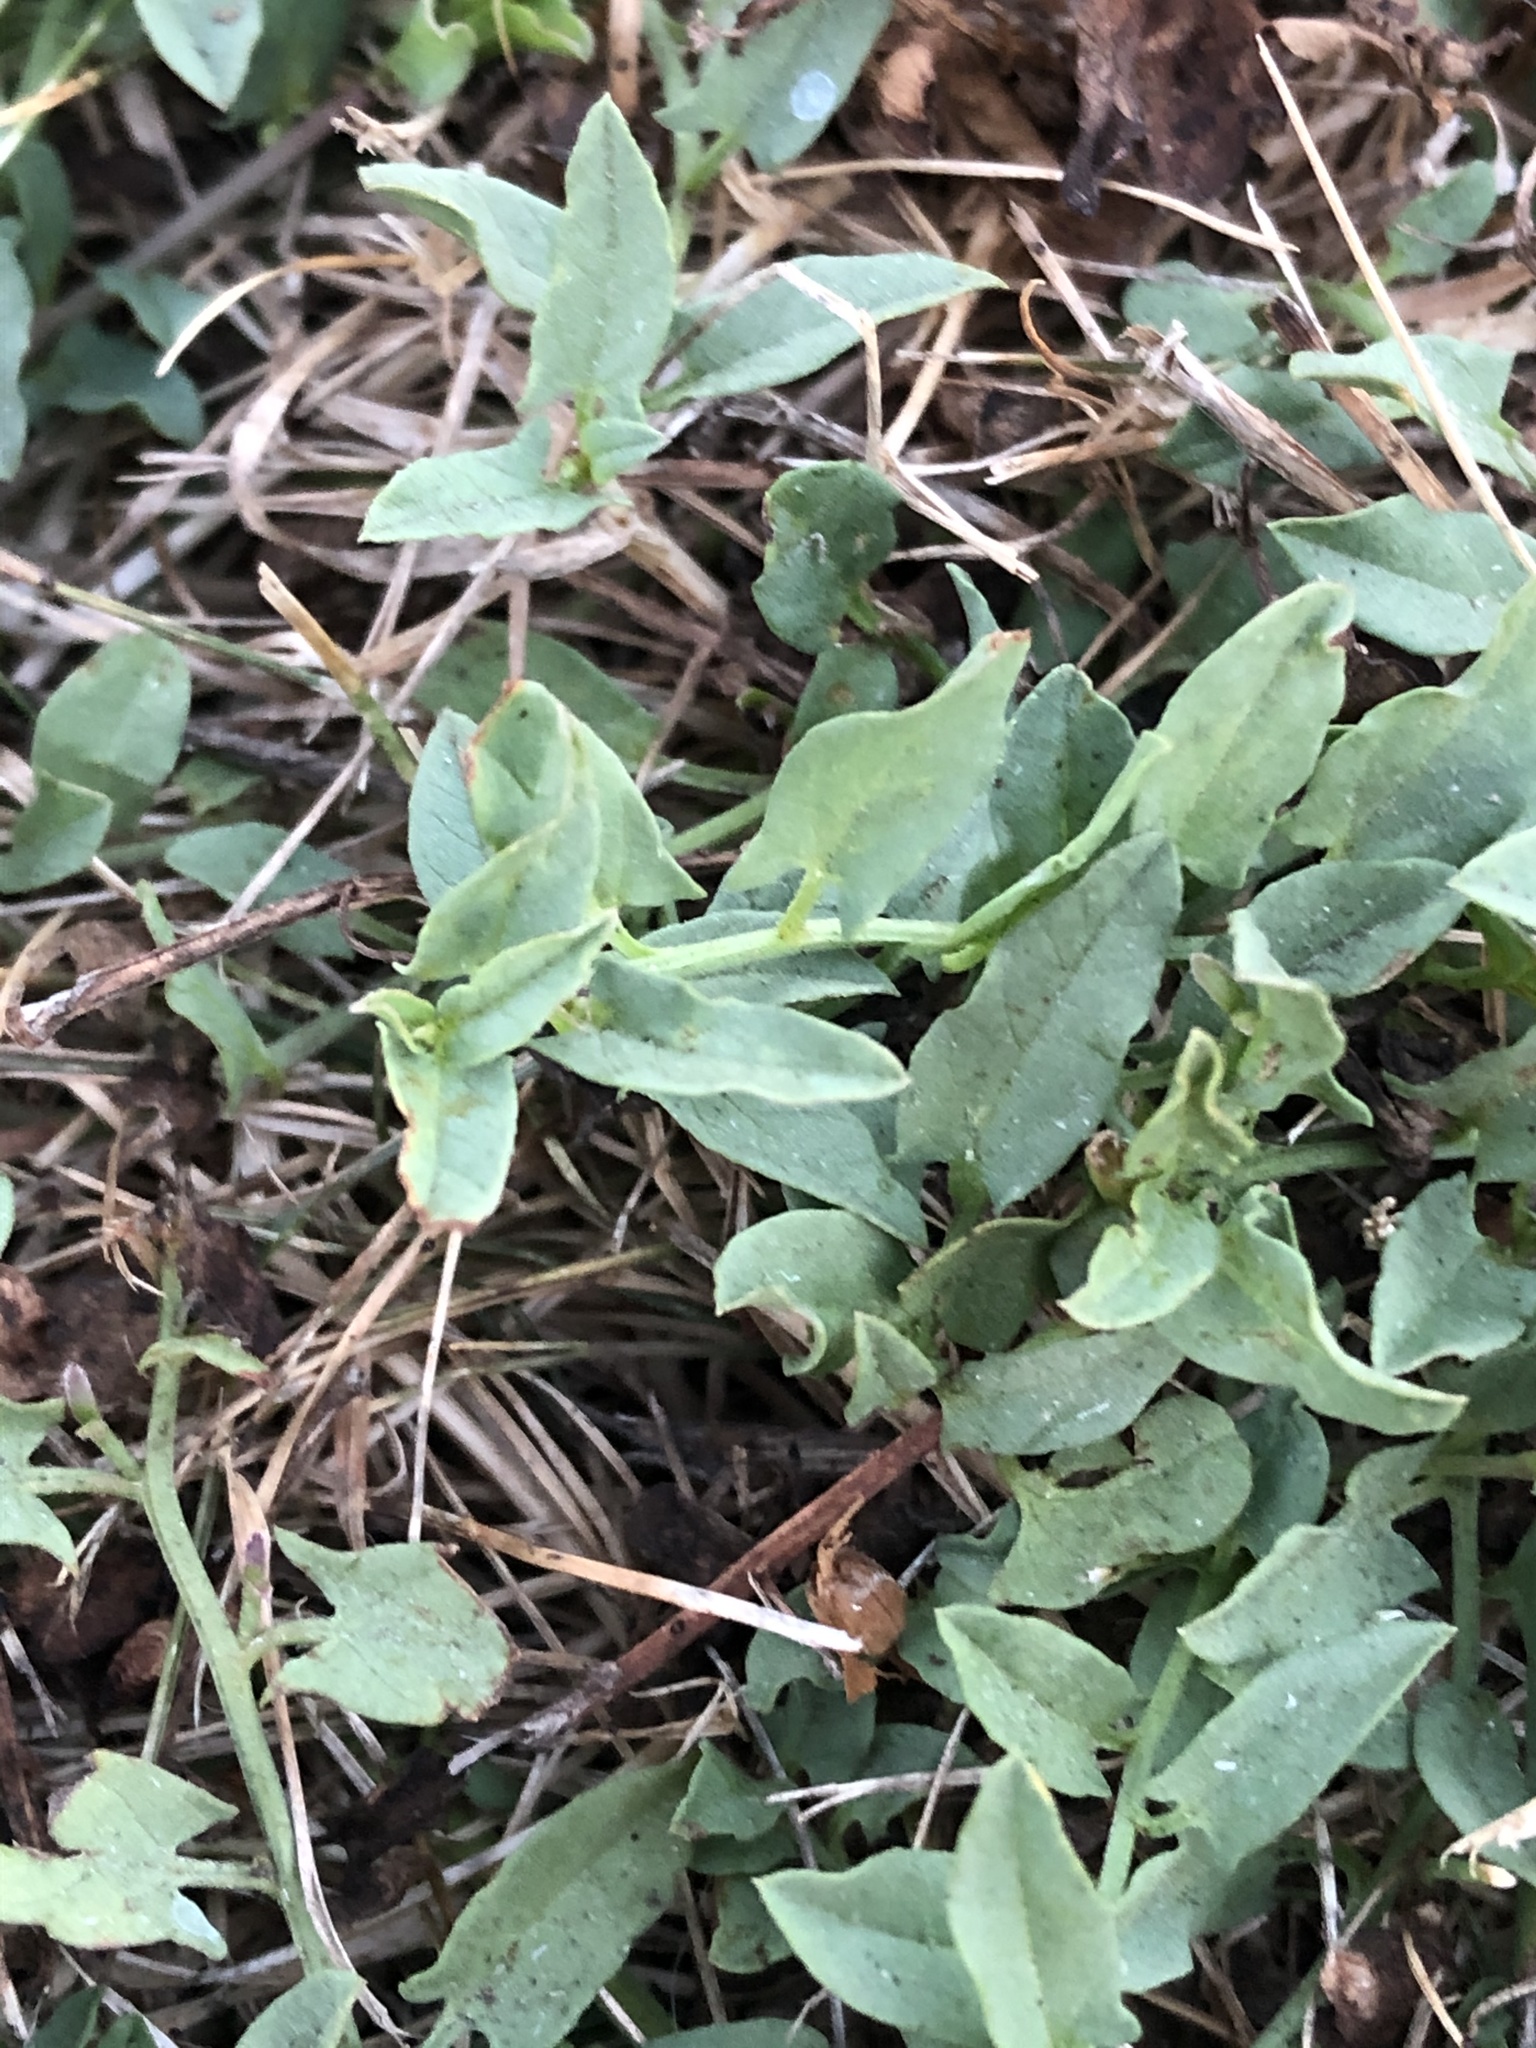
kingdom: Plantae
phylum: Tracheophyta
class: Magnoliopsida
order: Solanales
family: Convolvulaceae
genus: Convolvulus
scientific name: Convolvulus arvensis
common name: Field bindweed
